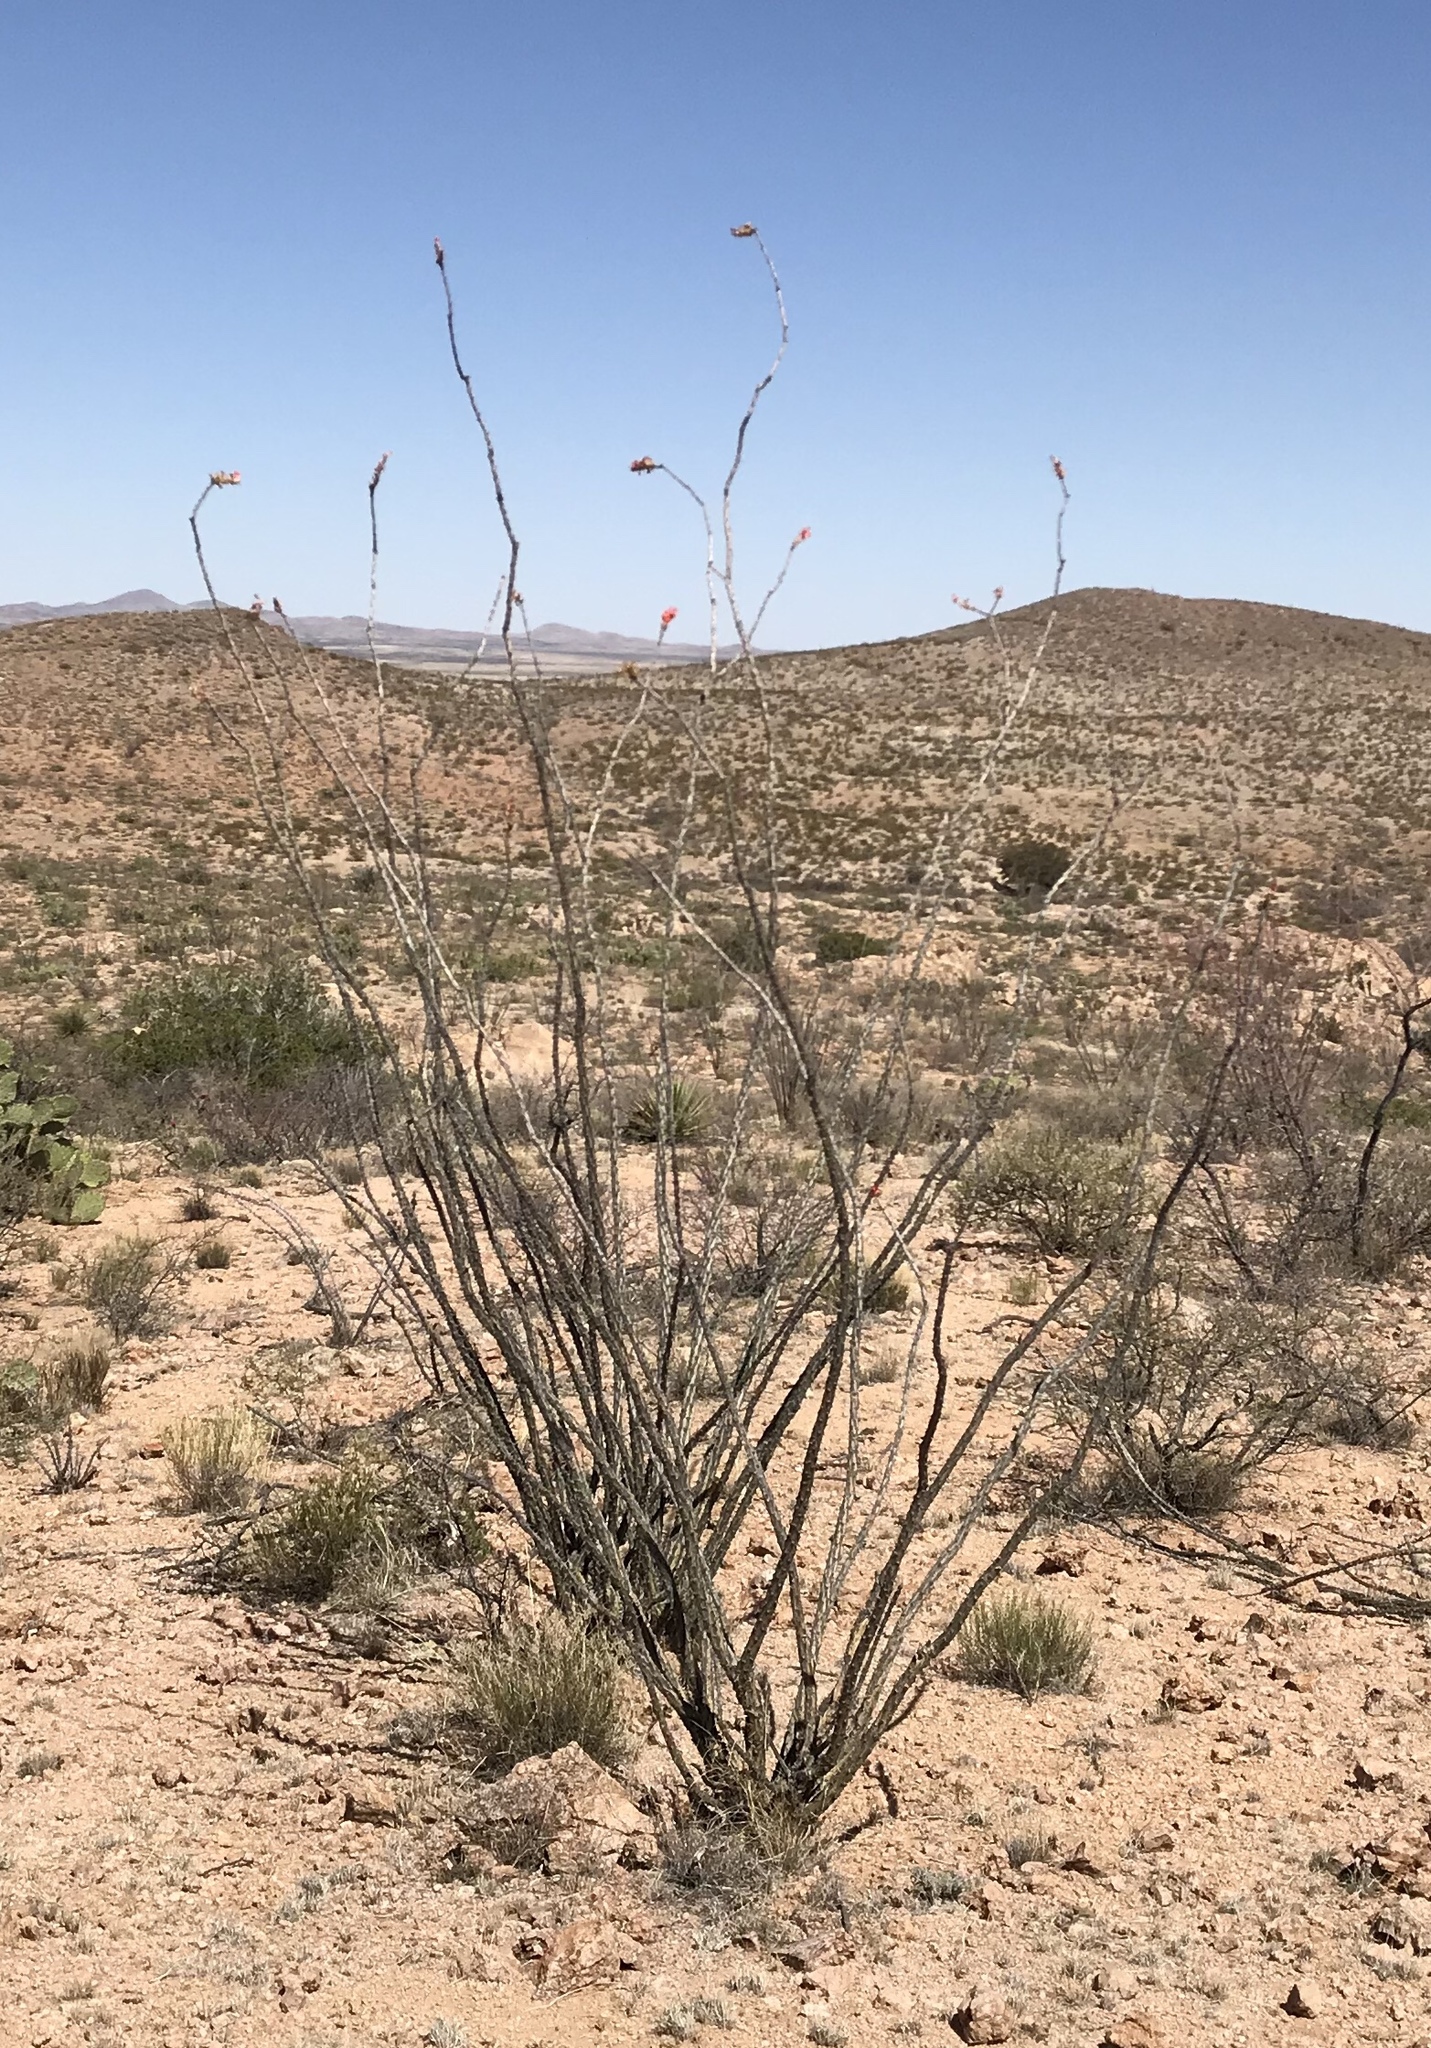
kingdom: Plantae
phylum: Tracheophyta
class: Magnoliopsida
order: Ericales
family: Fouquieriaceae
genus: Fouquieria
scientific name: Fouquieria splendens
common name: Vine-cactus
